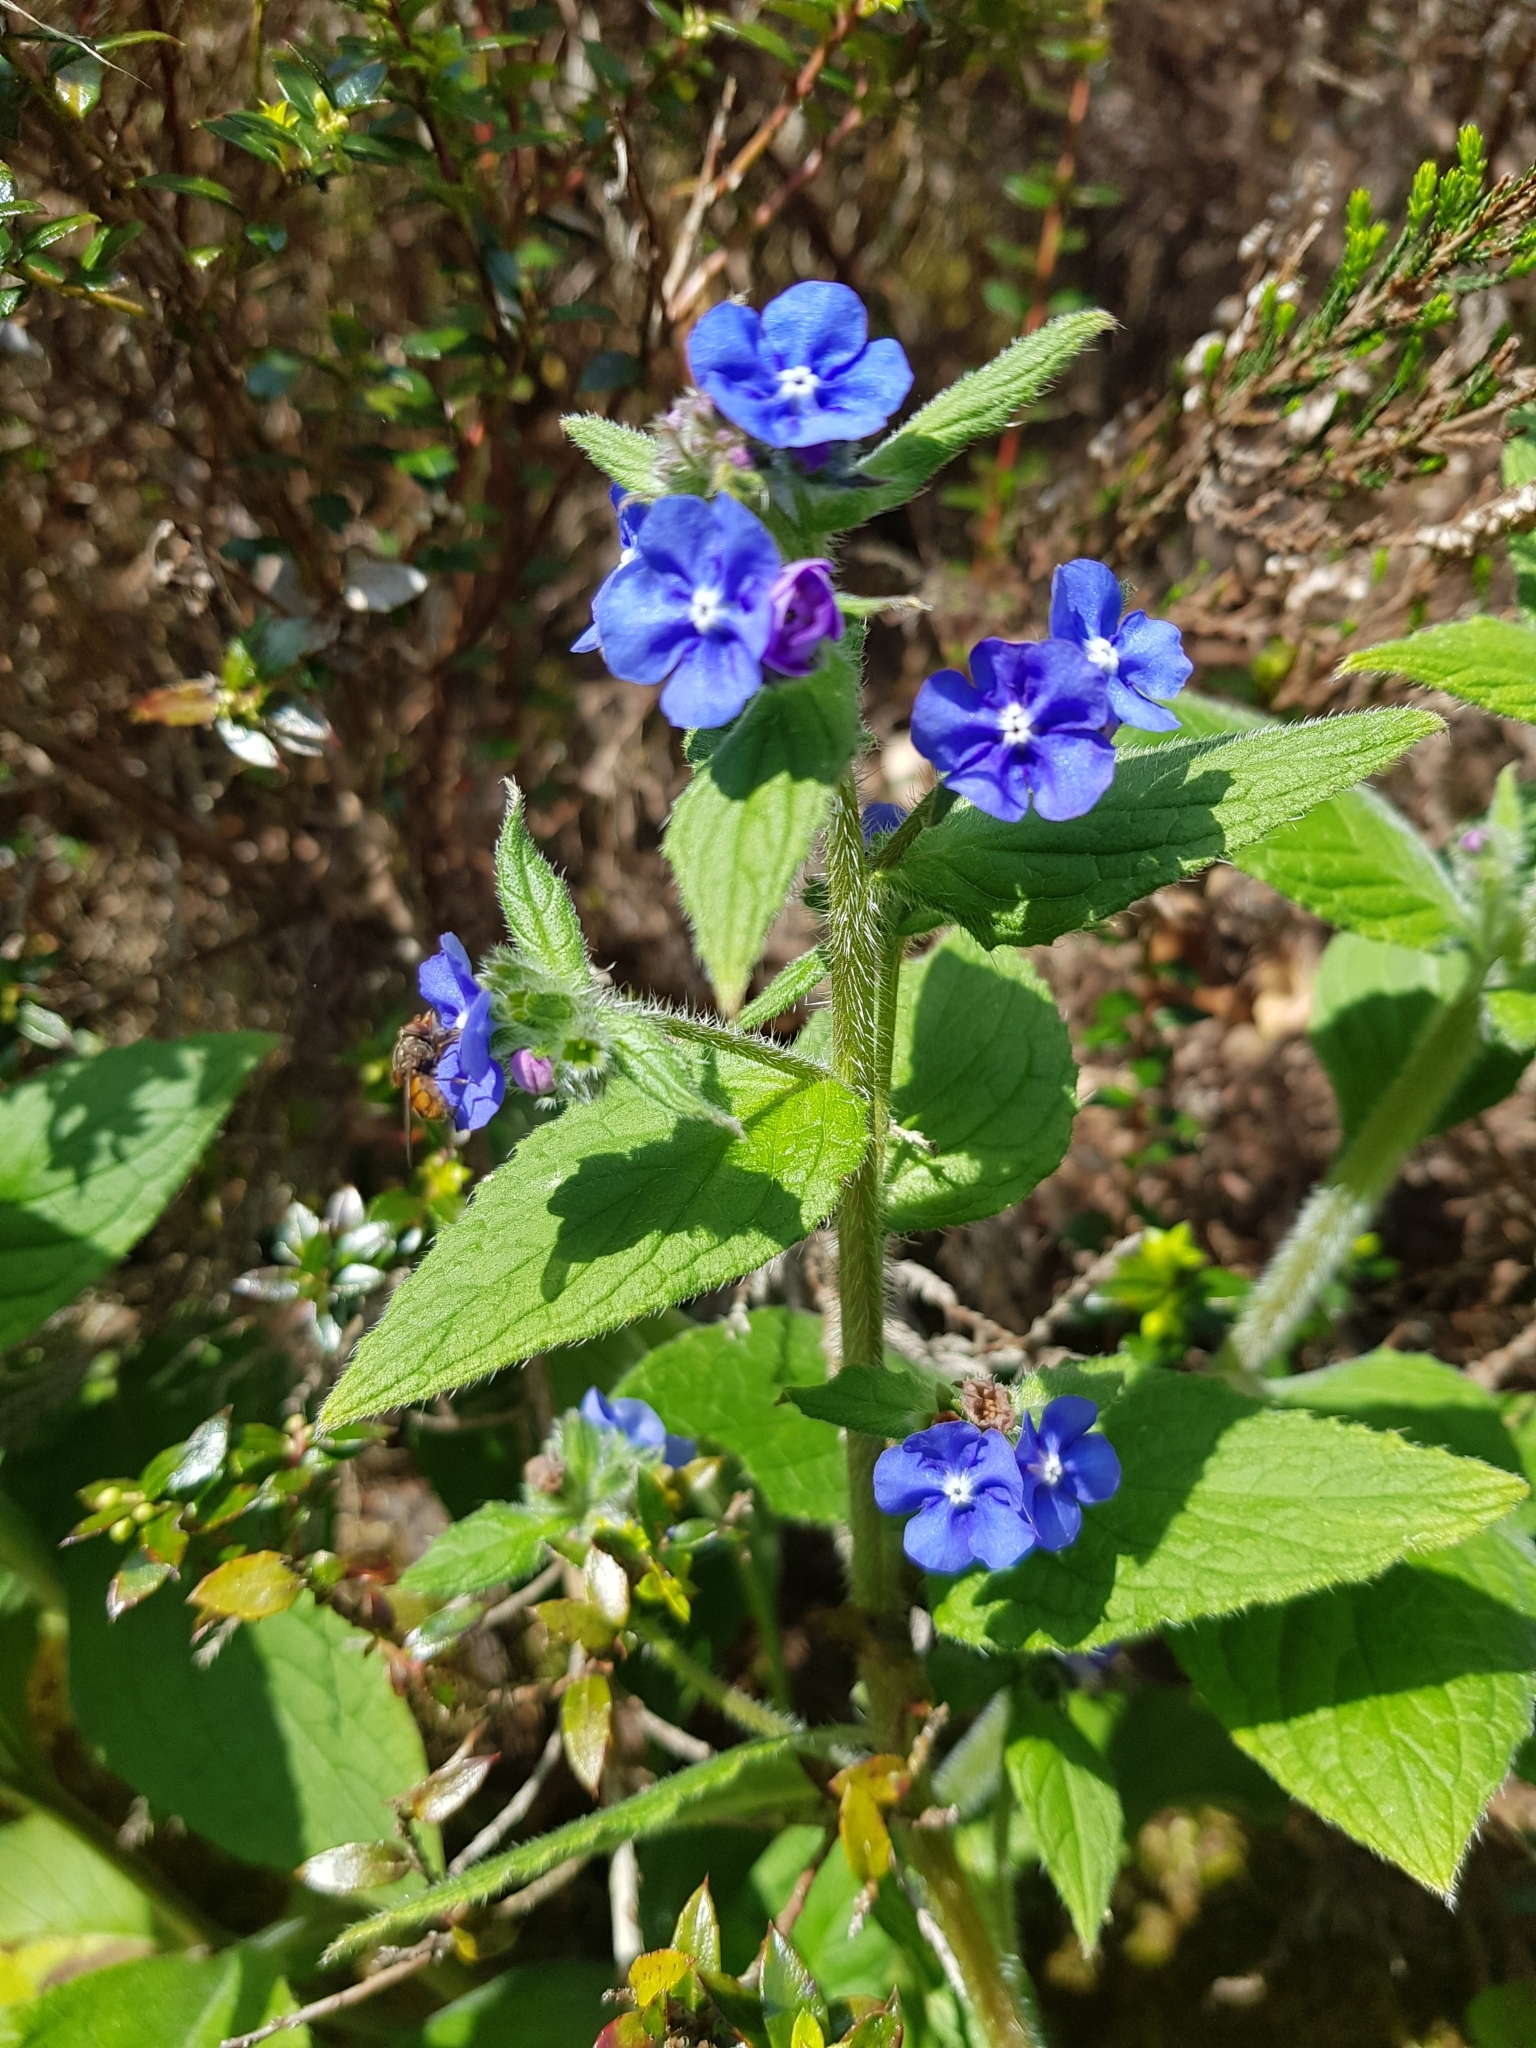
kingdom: Plantae
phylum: Tracheophyta
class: Magnoliopsida
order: Boraginales
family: Boraginaceae
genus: Pentaglottis
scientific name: Pentaglottis sempervirens
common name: Green alkanet
